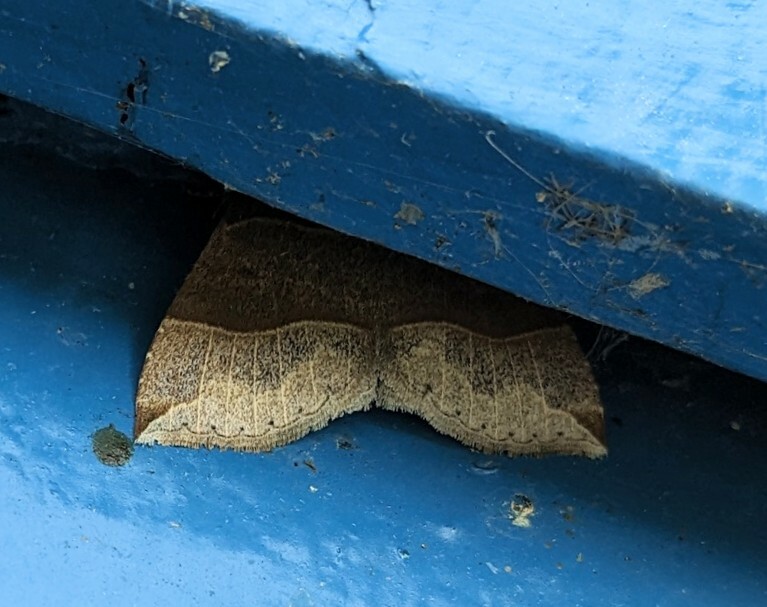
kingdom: Animalia
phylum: Arthropoda
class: Insecta
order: Lepidoptera
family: Erebidae
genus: Parallelia
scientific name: Parallelia bistriaris
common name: Maple looper moth
